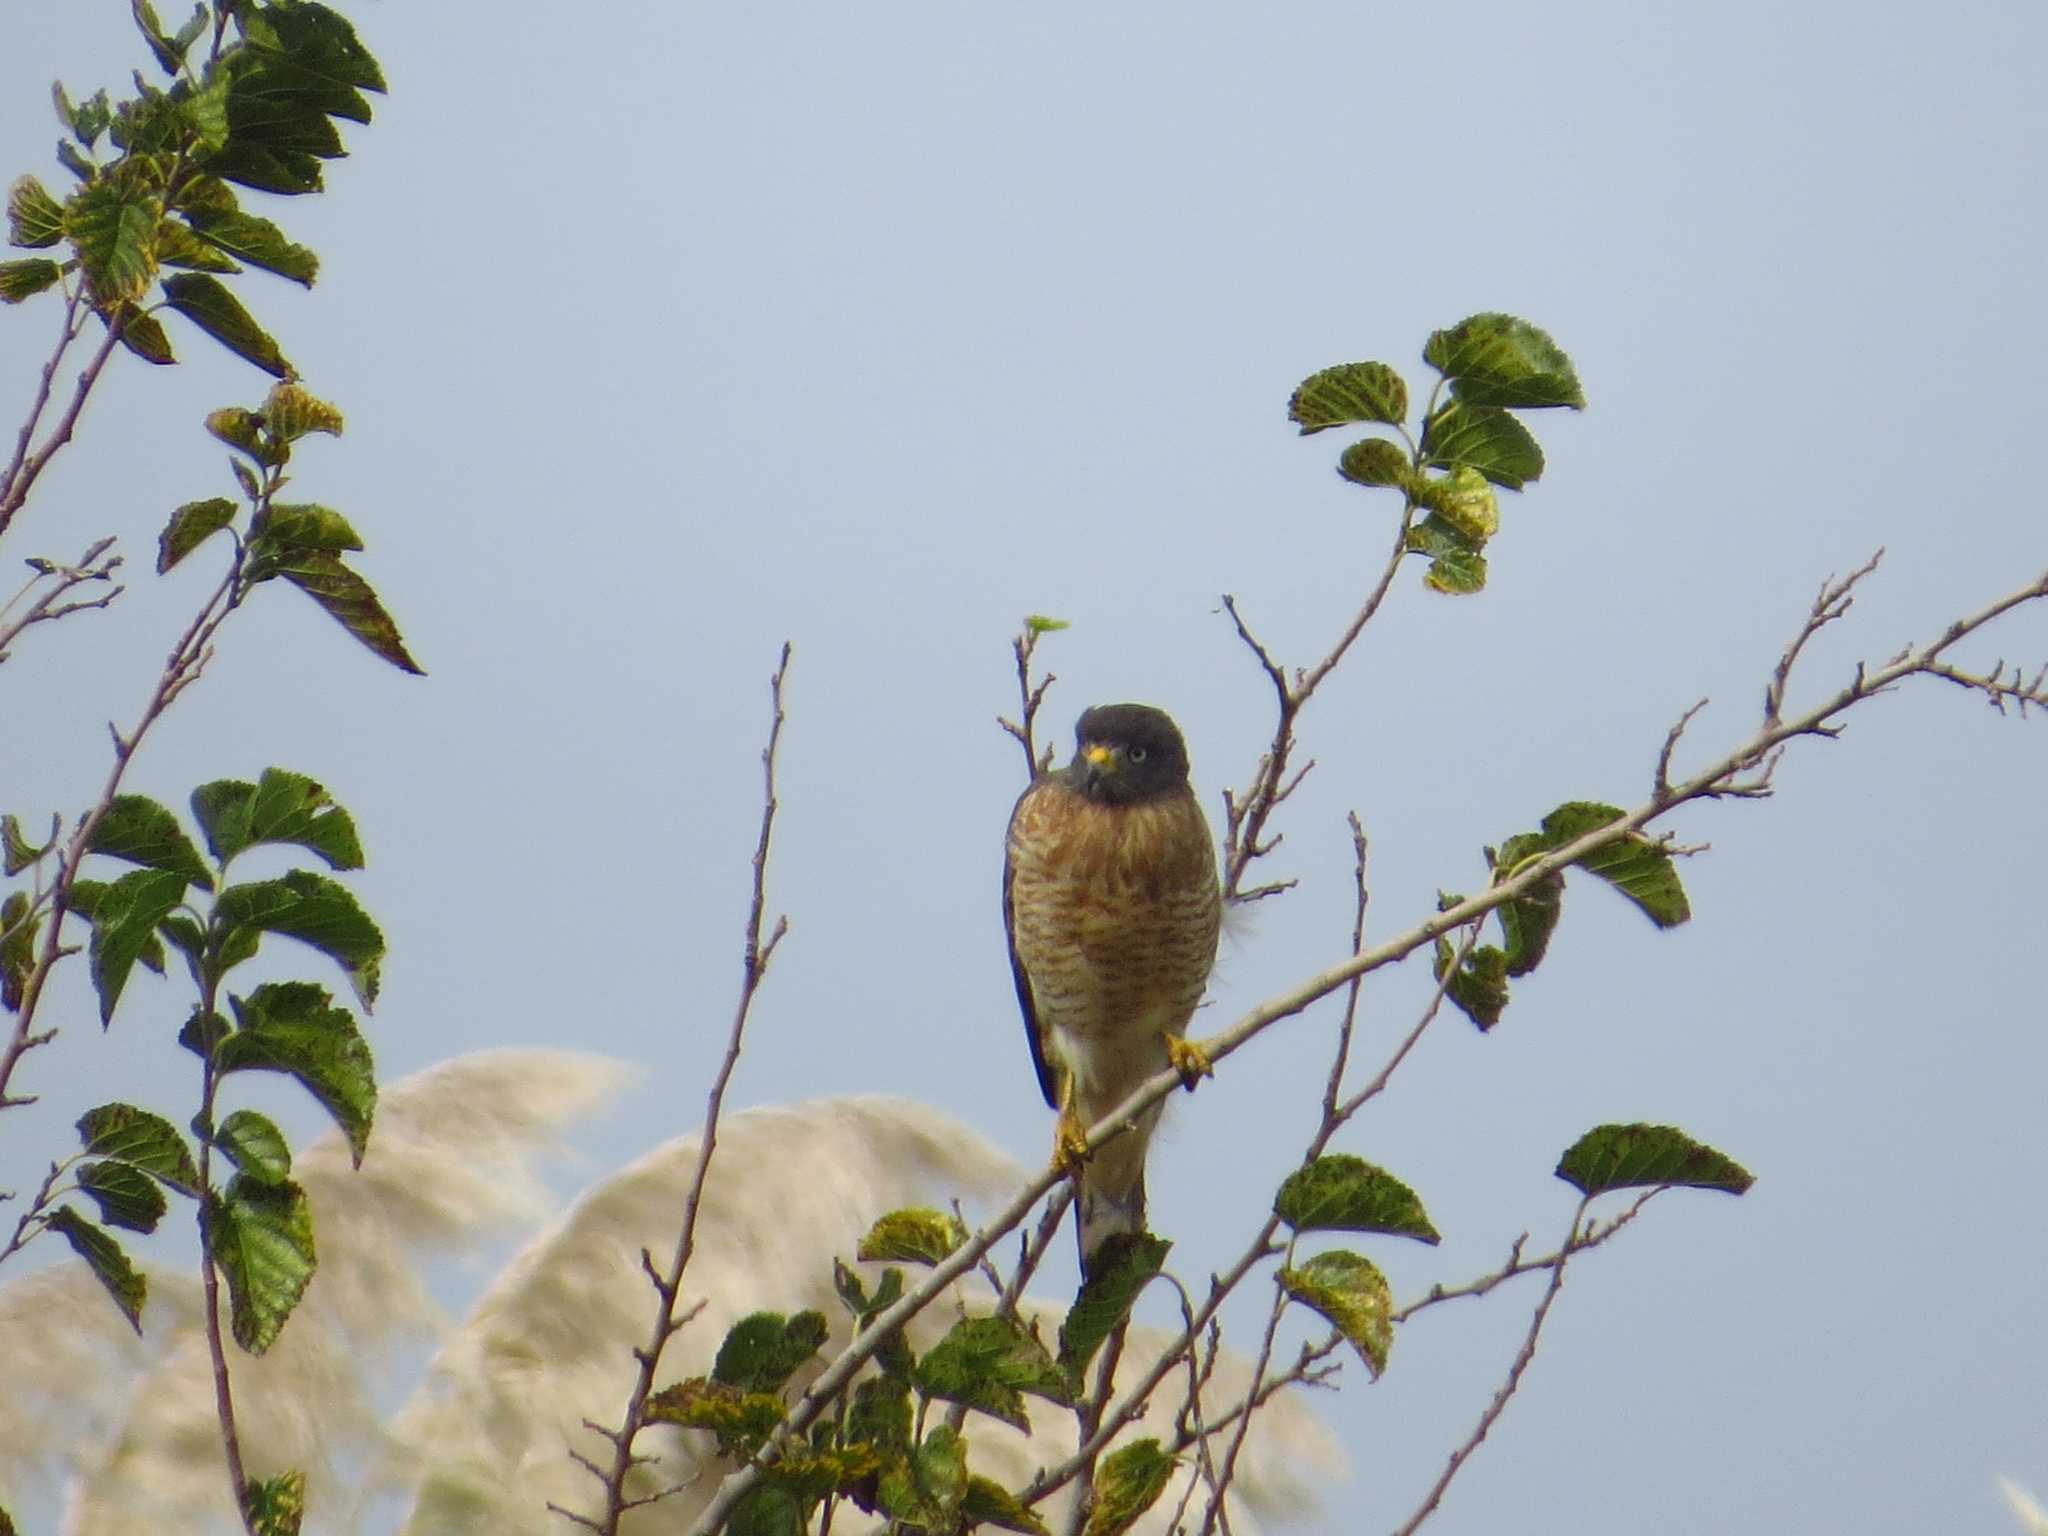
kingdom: Animalia
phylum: Chordata
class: Aves
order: Accipitriformes
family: Accipitridae
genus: Rupornis
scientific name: Rupornis magnirostris
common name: Roadside hawk
